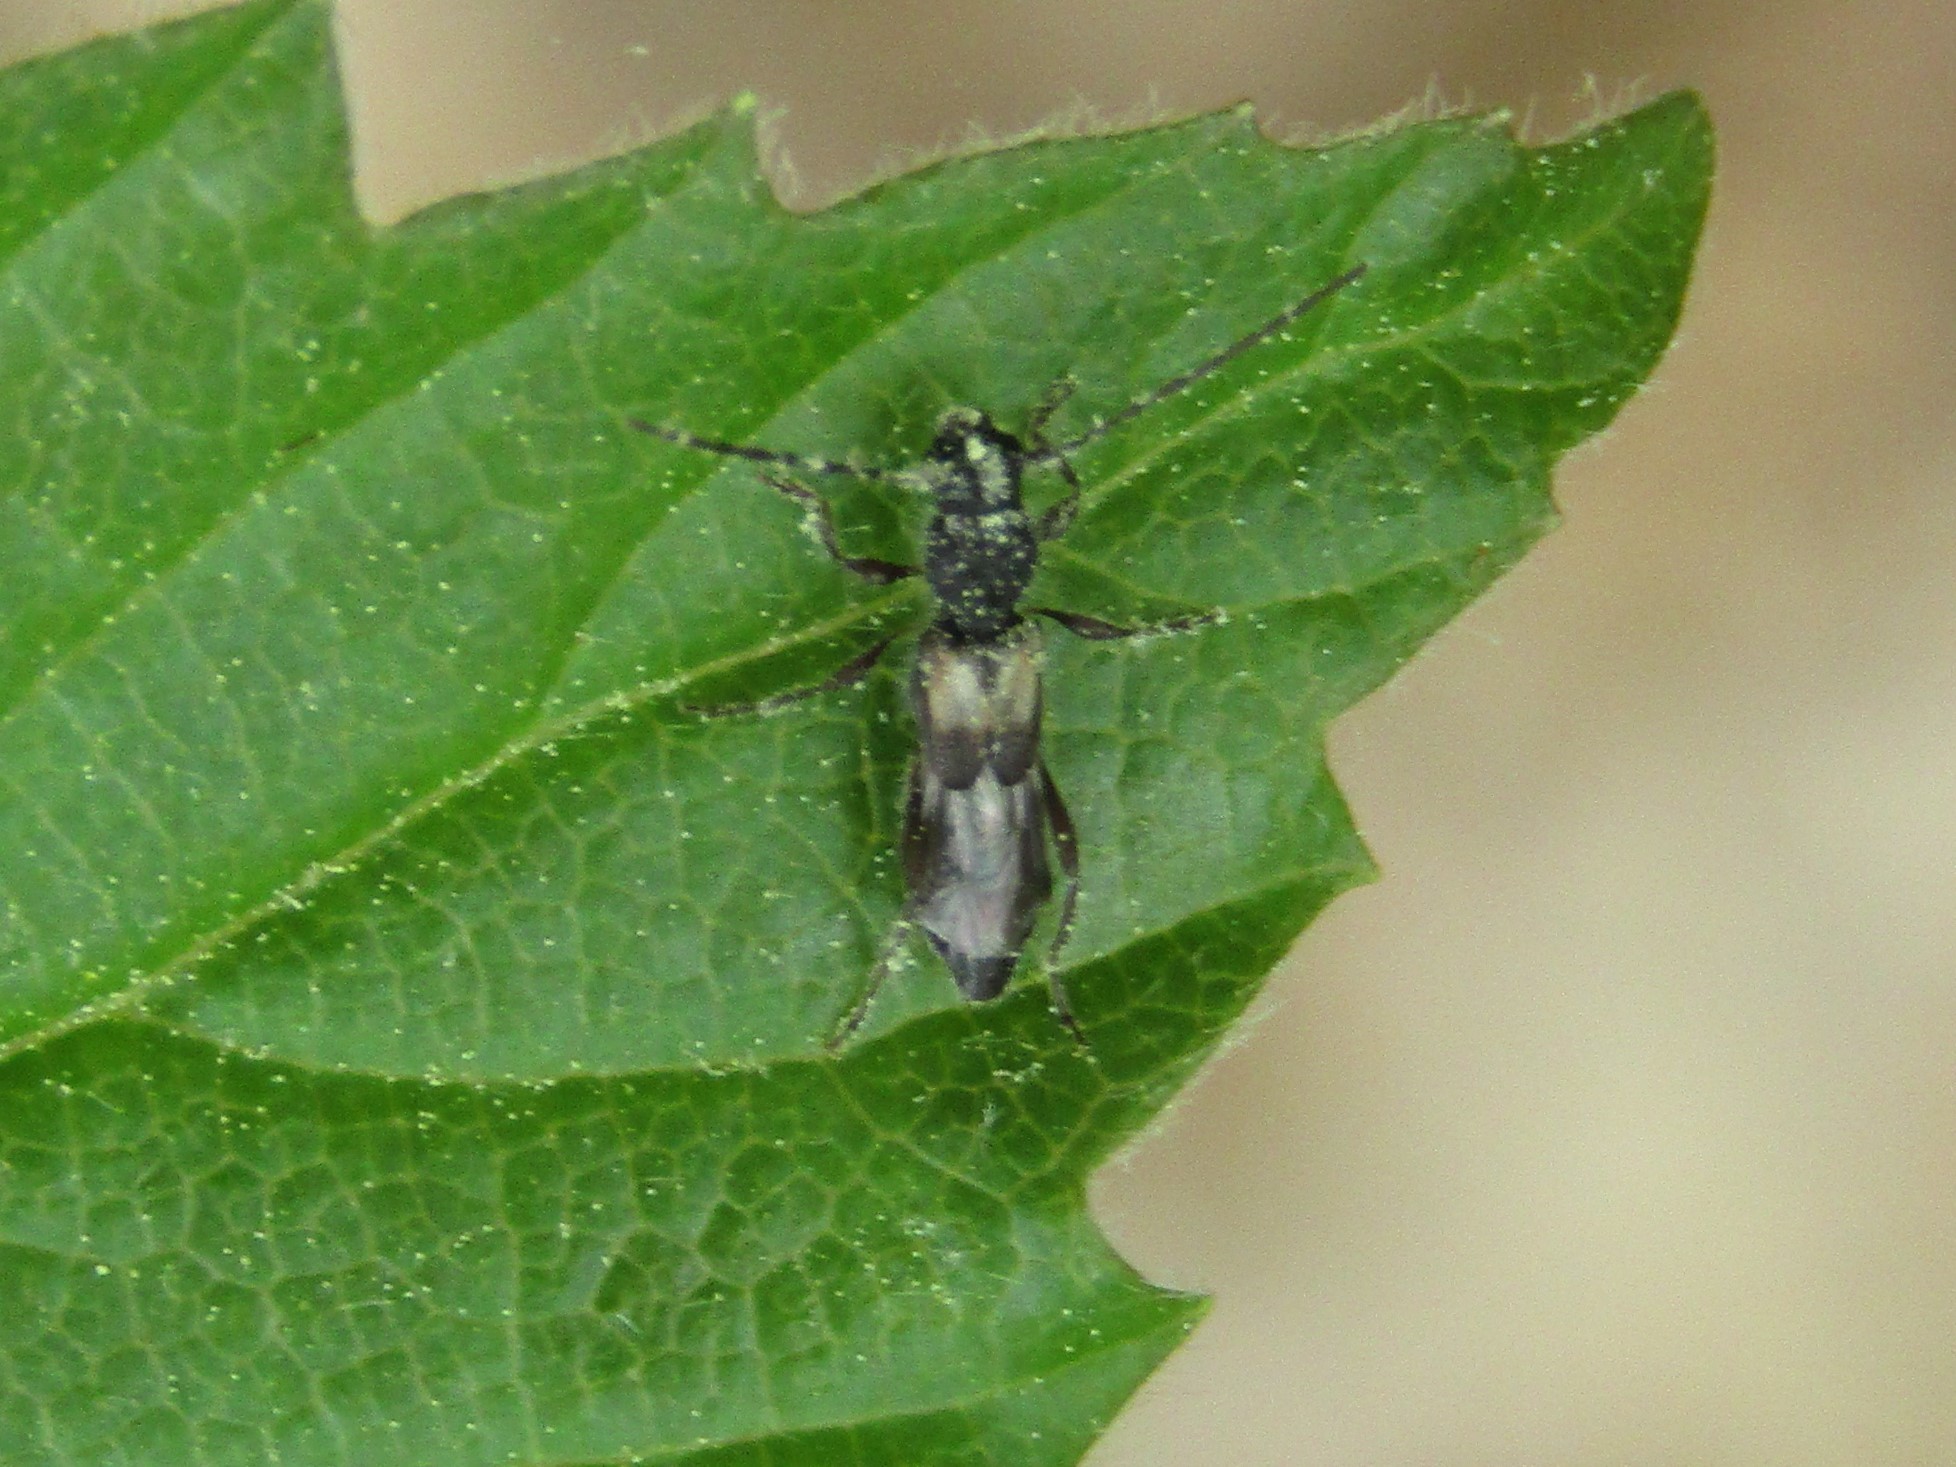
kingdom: Animalia
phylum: Arthropoda
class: Insecta
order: Coleoptera
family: Cerambycidae
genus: Molorchus
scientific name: Molorchus bimaculatus
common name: Bimaculate longhorn beetle
